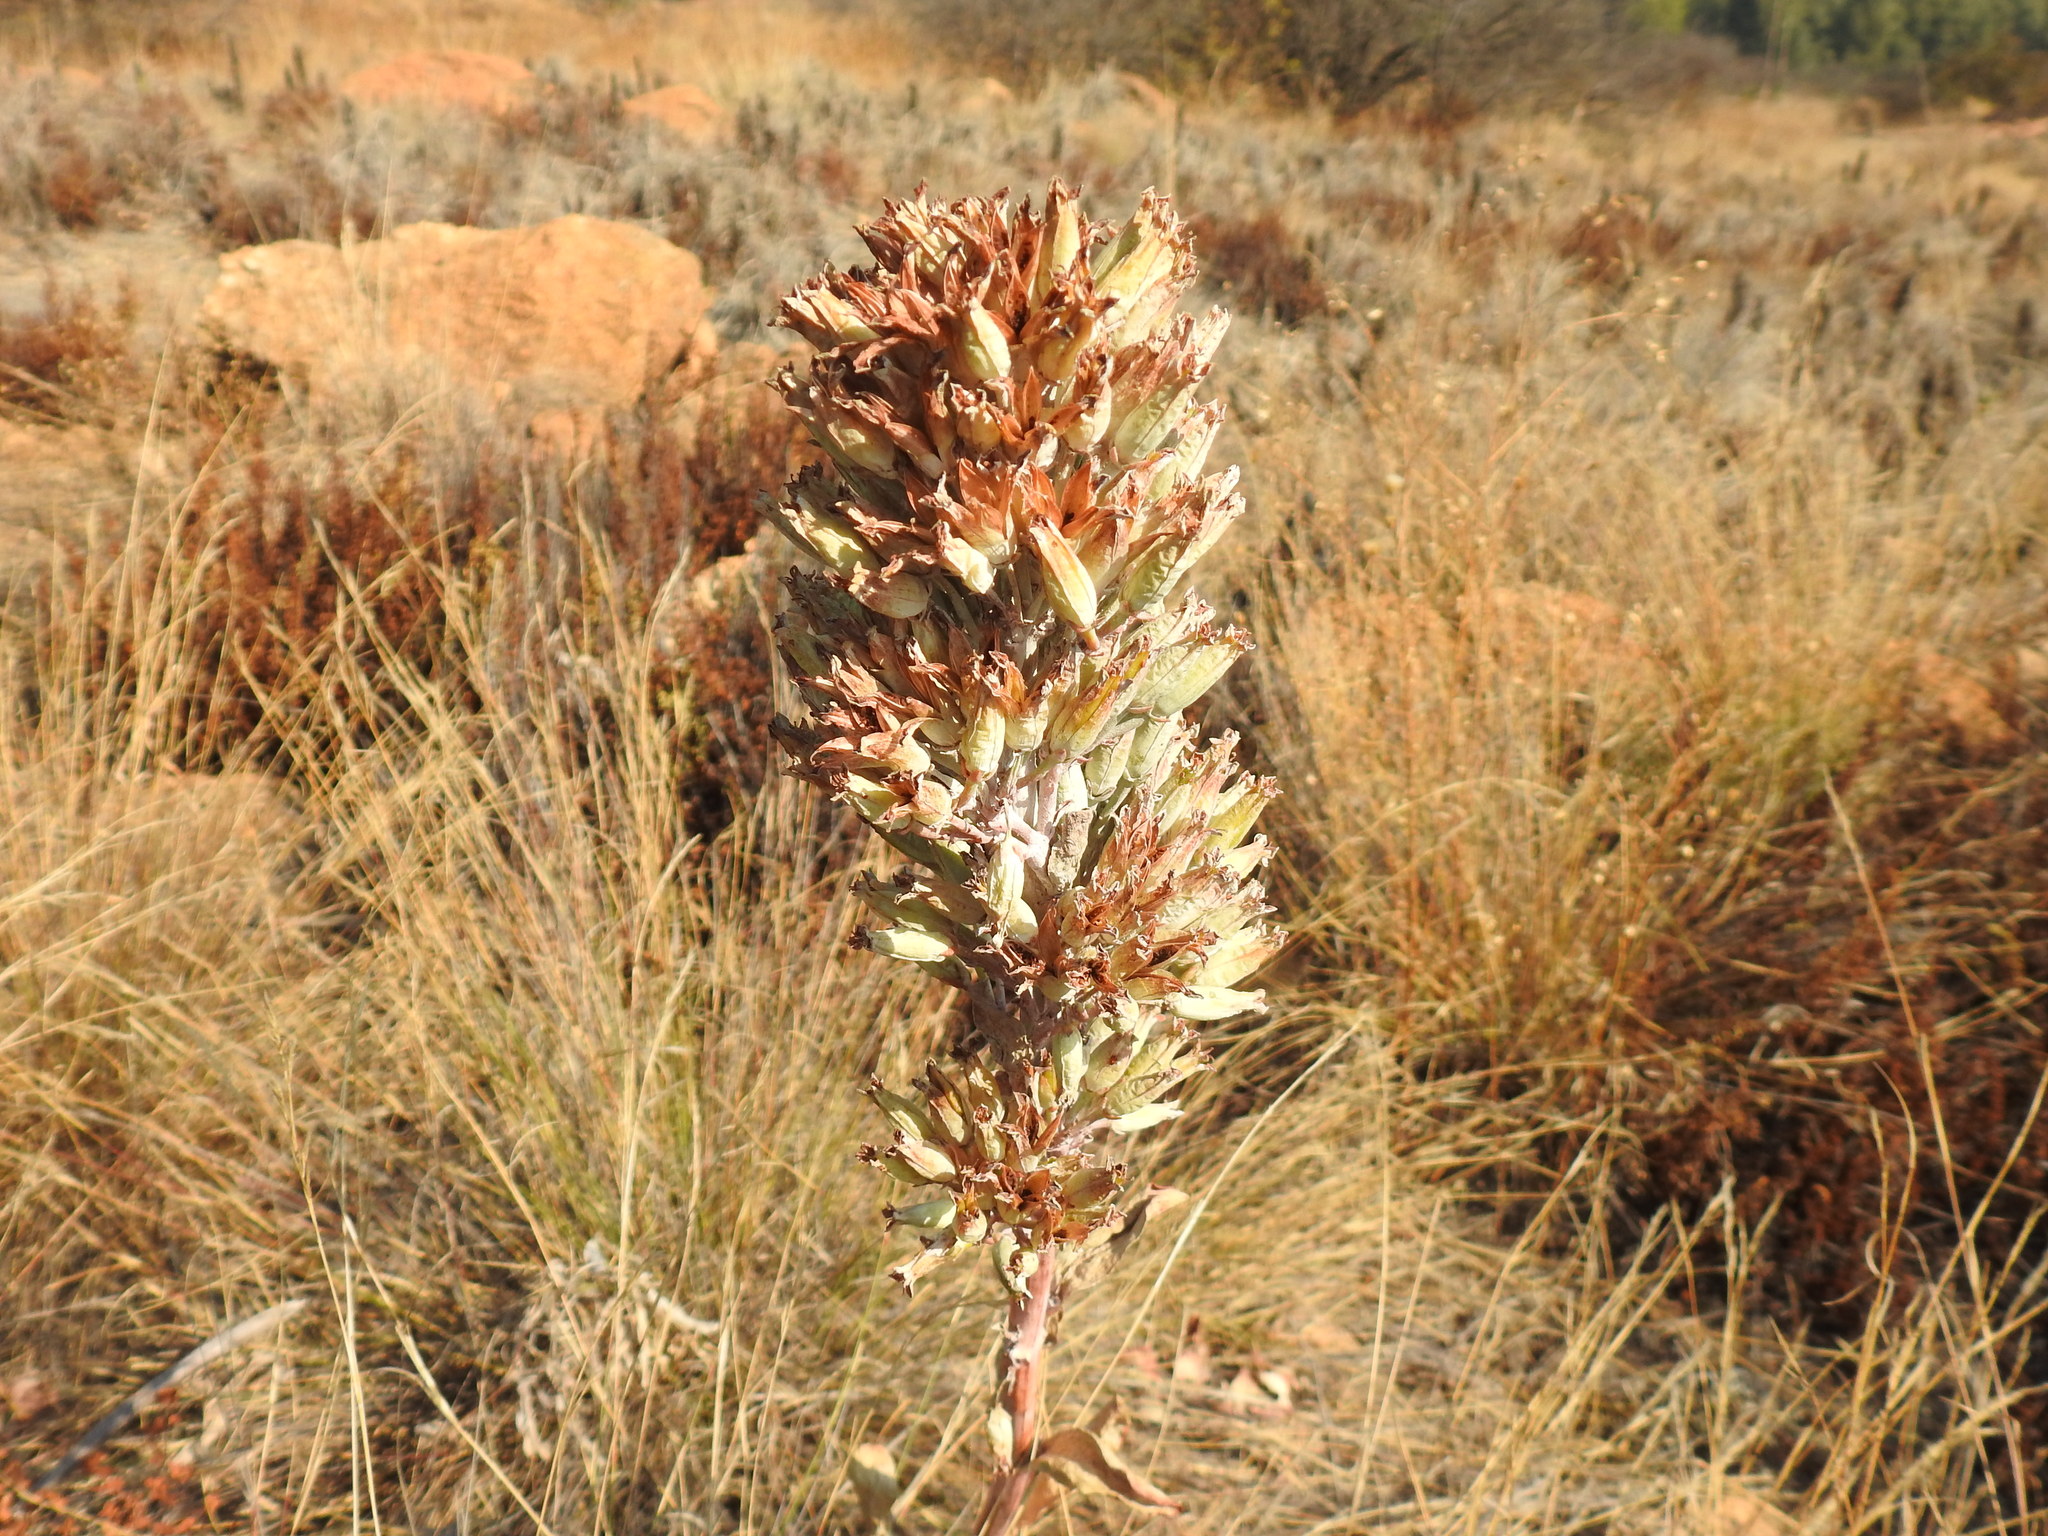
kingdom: Plantae
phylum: Tracheophyta
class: Magnoliopsida
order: Saxifragales
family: Crassulaceae
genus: Kalanchoe
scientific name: Kalanchoe thyrsiflora
